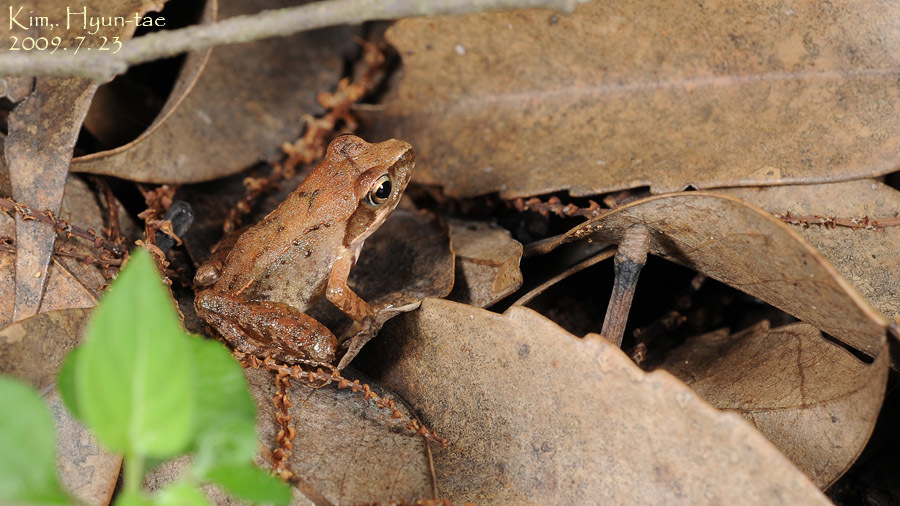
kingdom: Animalia
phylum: Chordata
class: Amphibia
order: Anura
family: Ranidae
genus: Rana
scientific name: Rana uenoi
